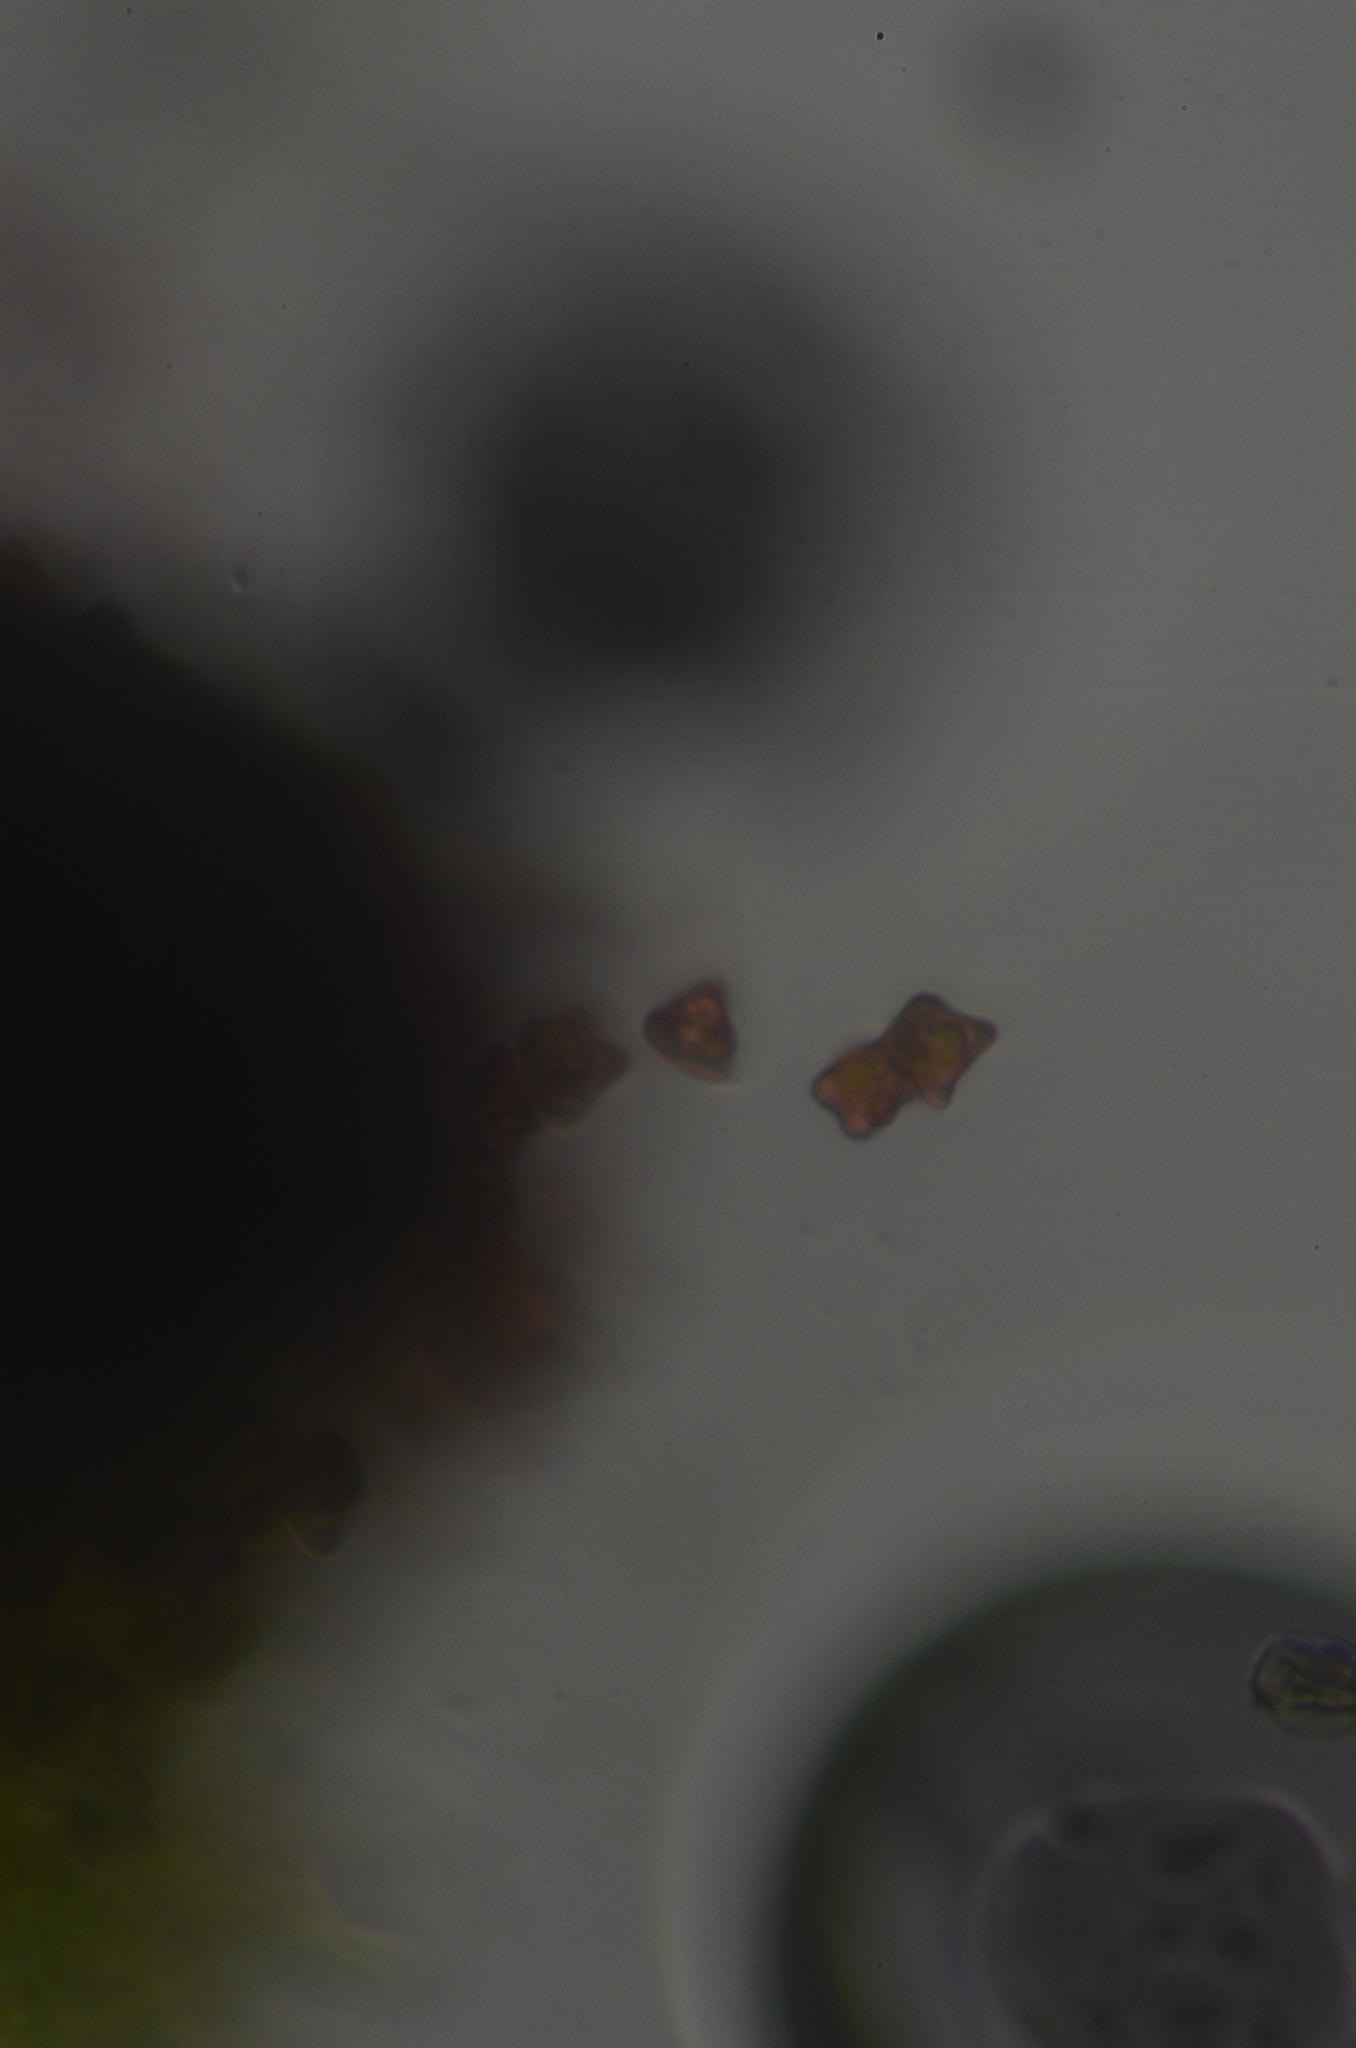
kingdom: Plantae
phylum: Marchantiophyta
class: Jungermanniopsida
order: Jungermanniales
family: Anastrophyllaceae
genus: Crossocalyx
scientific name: Crossocalyx hellerianus
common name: Heller's notchwort
